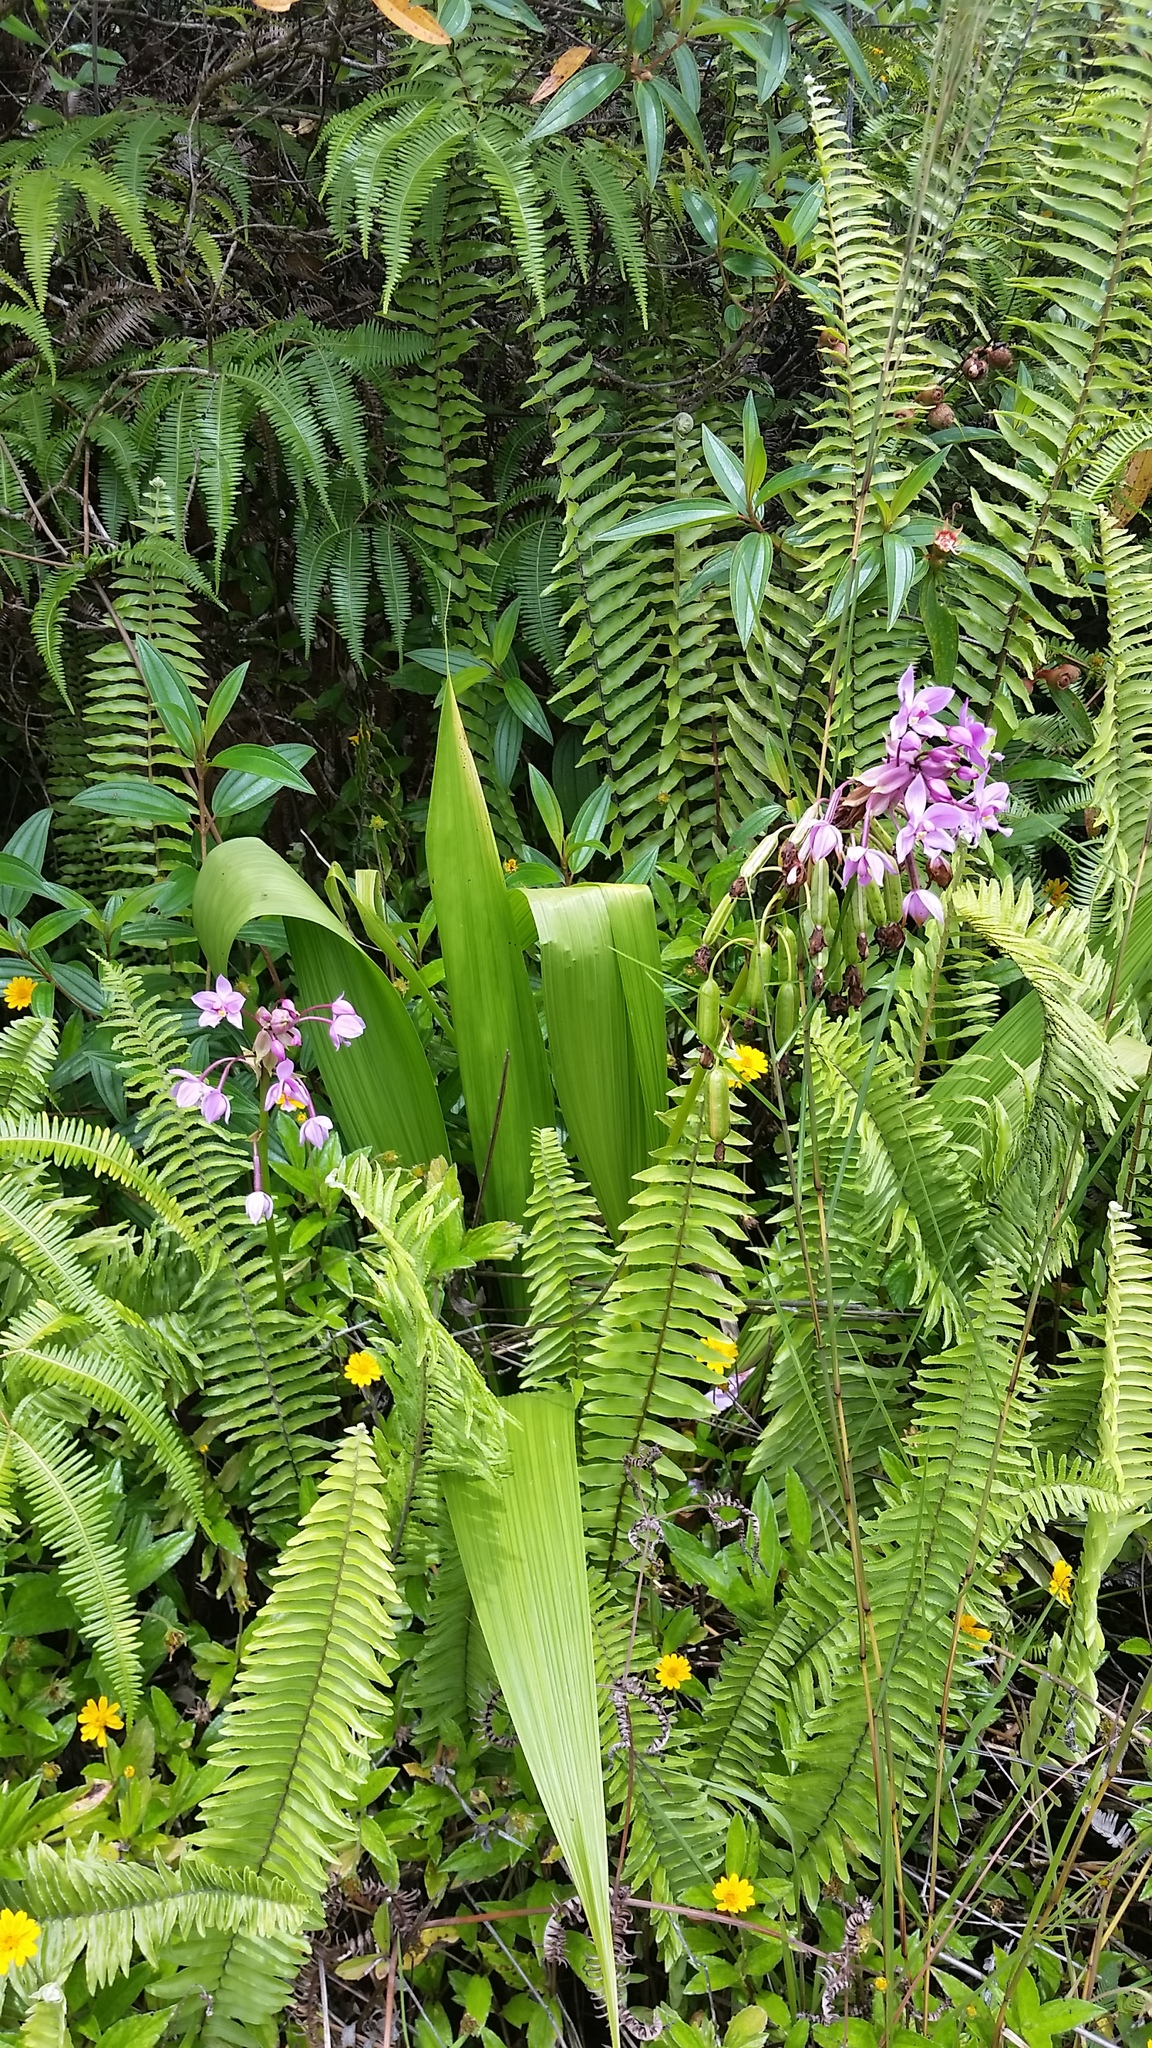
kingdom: Plantae
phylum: Tracheophyta
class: Liliopsida
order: Asparagales
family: Orchidaceae
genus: Spathoglottis
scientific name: Spathoglottis plicata
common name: Philippine ground orchid
